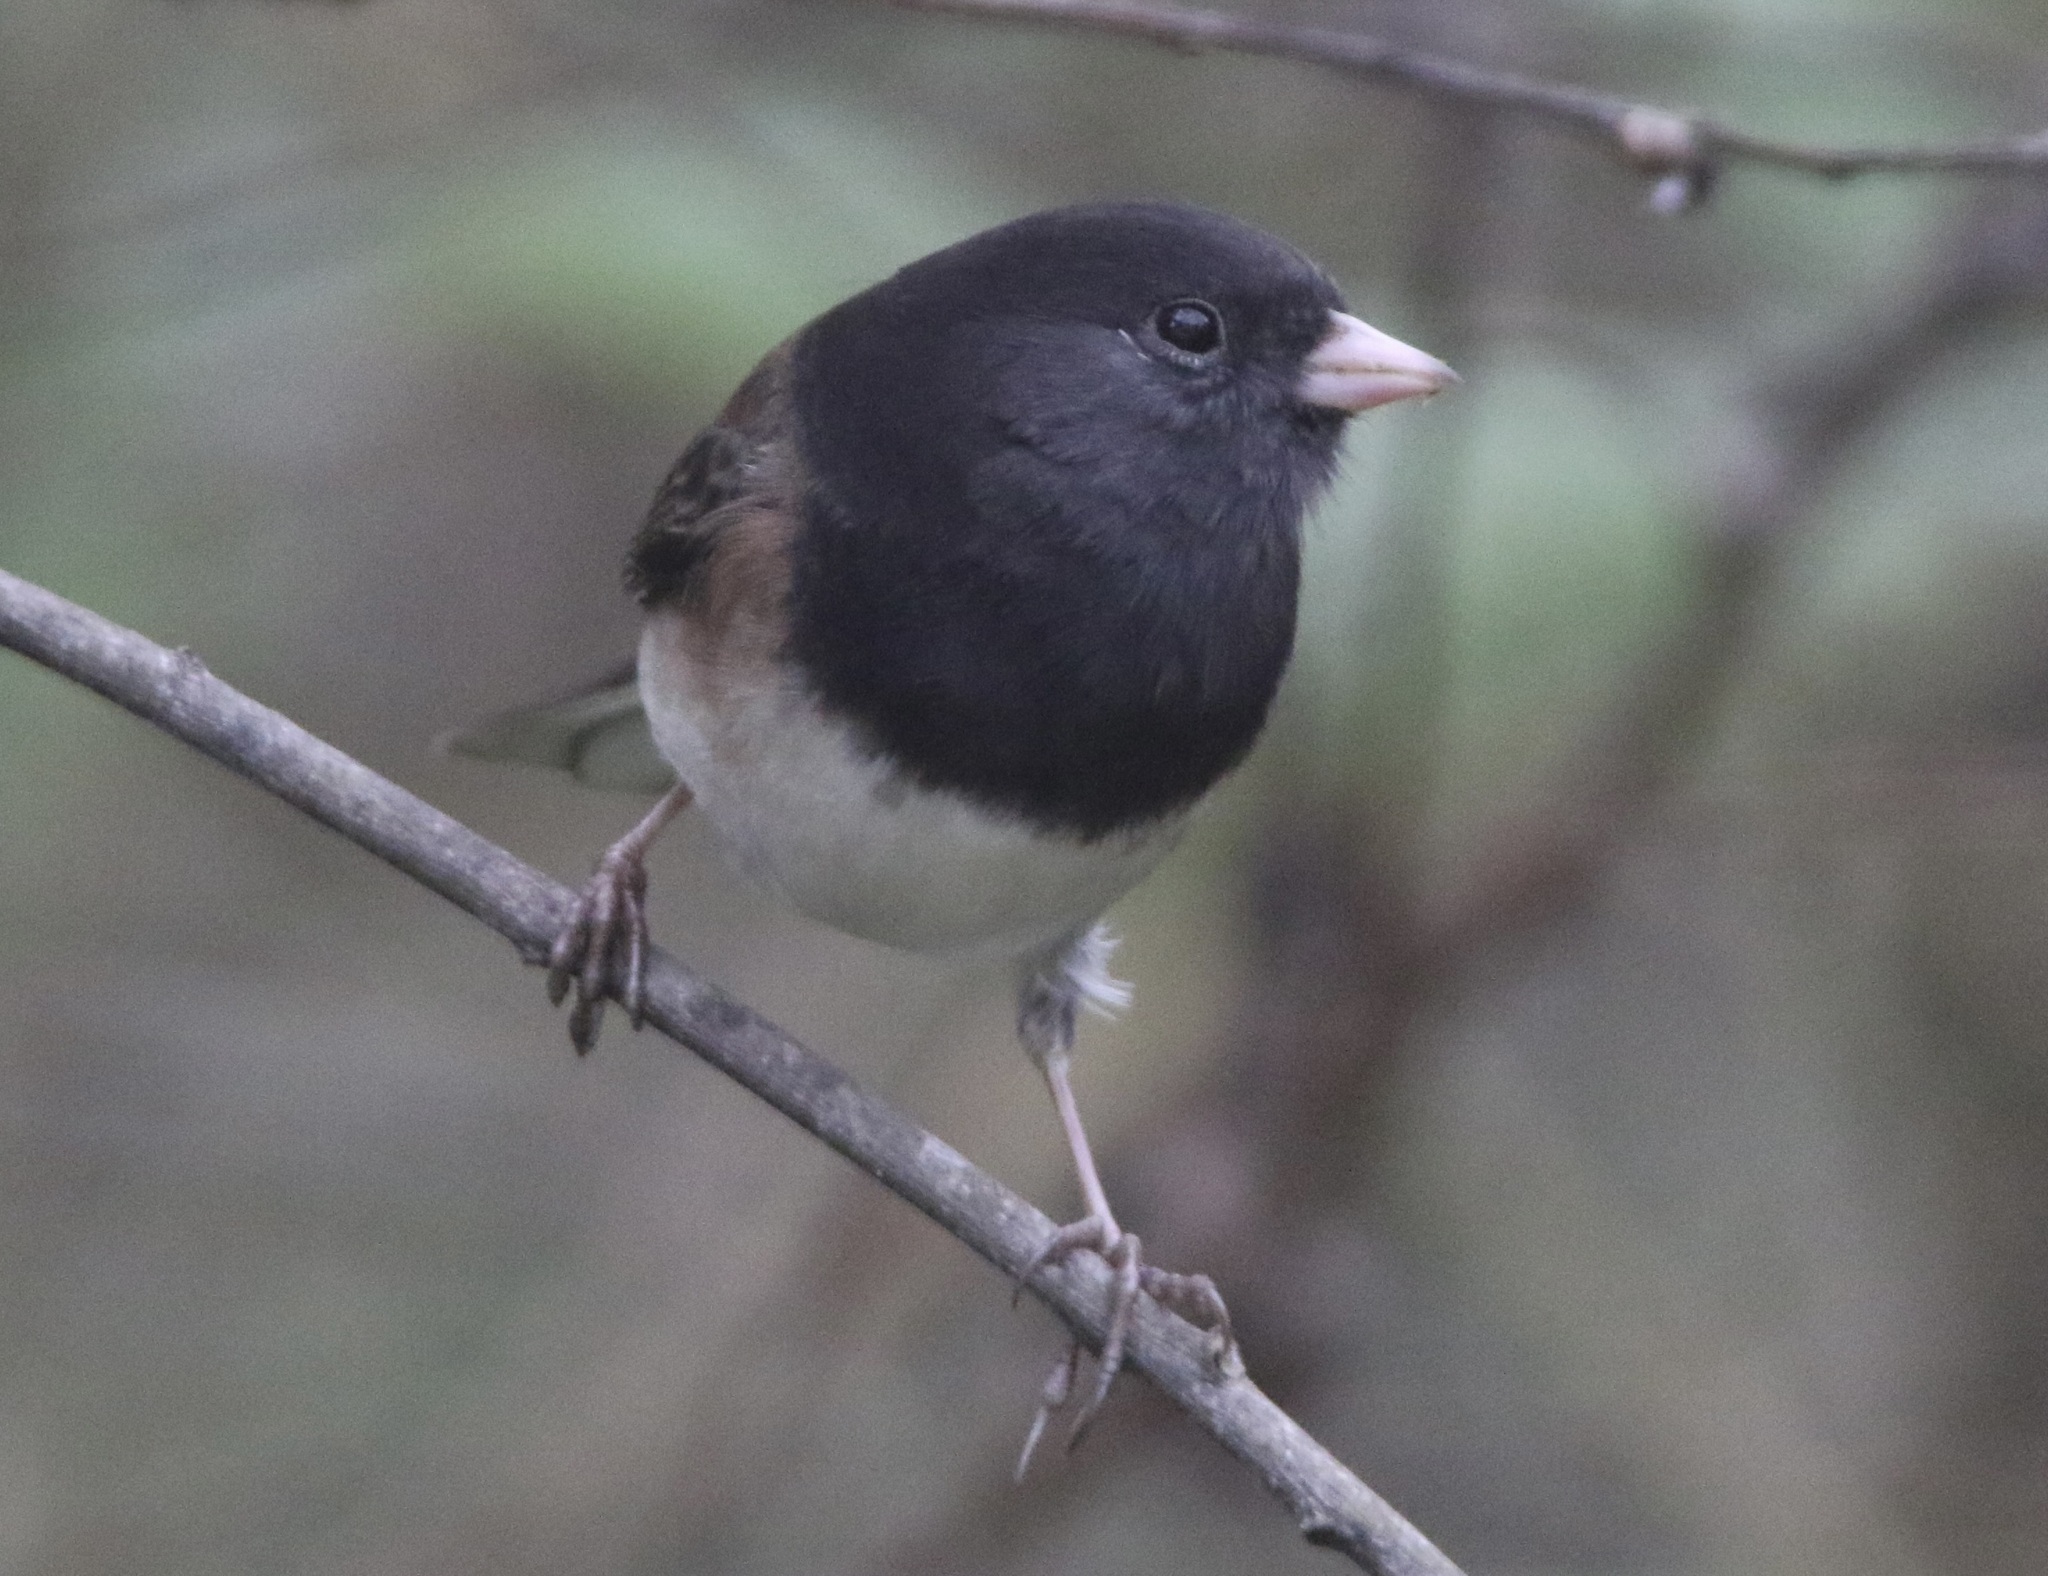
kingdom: Animalia
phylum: Chordata
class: Aves
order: Passeriformes
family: Passerellidae
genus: Junco
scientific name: Junco hyemalis
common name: Dark-eyed junco
